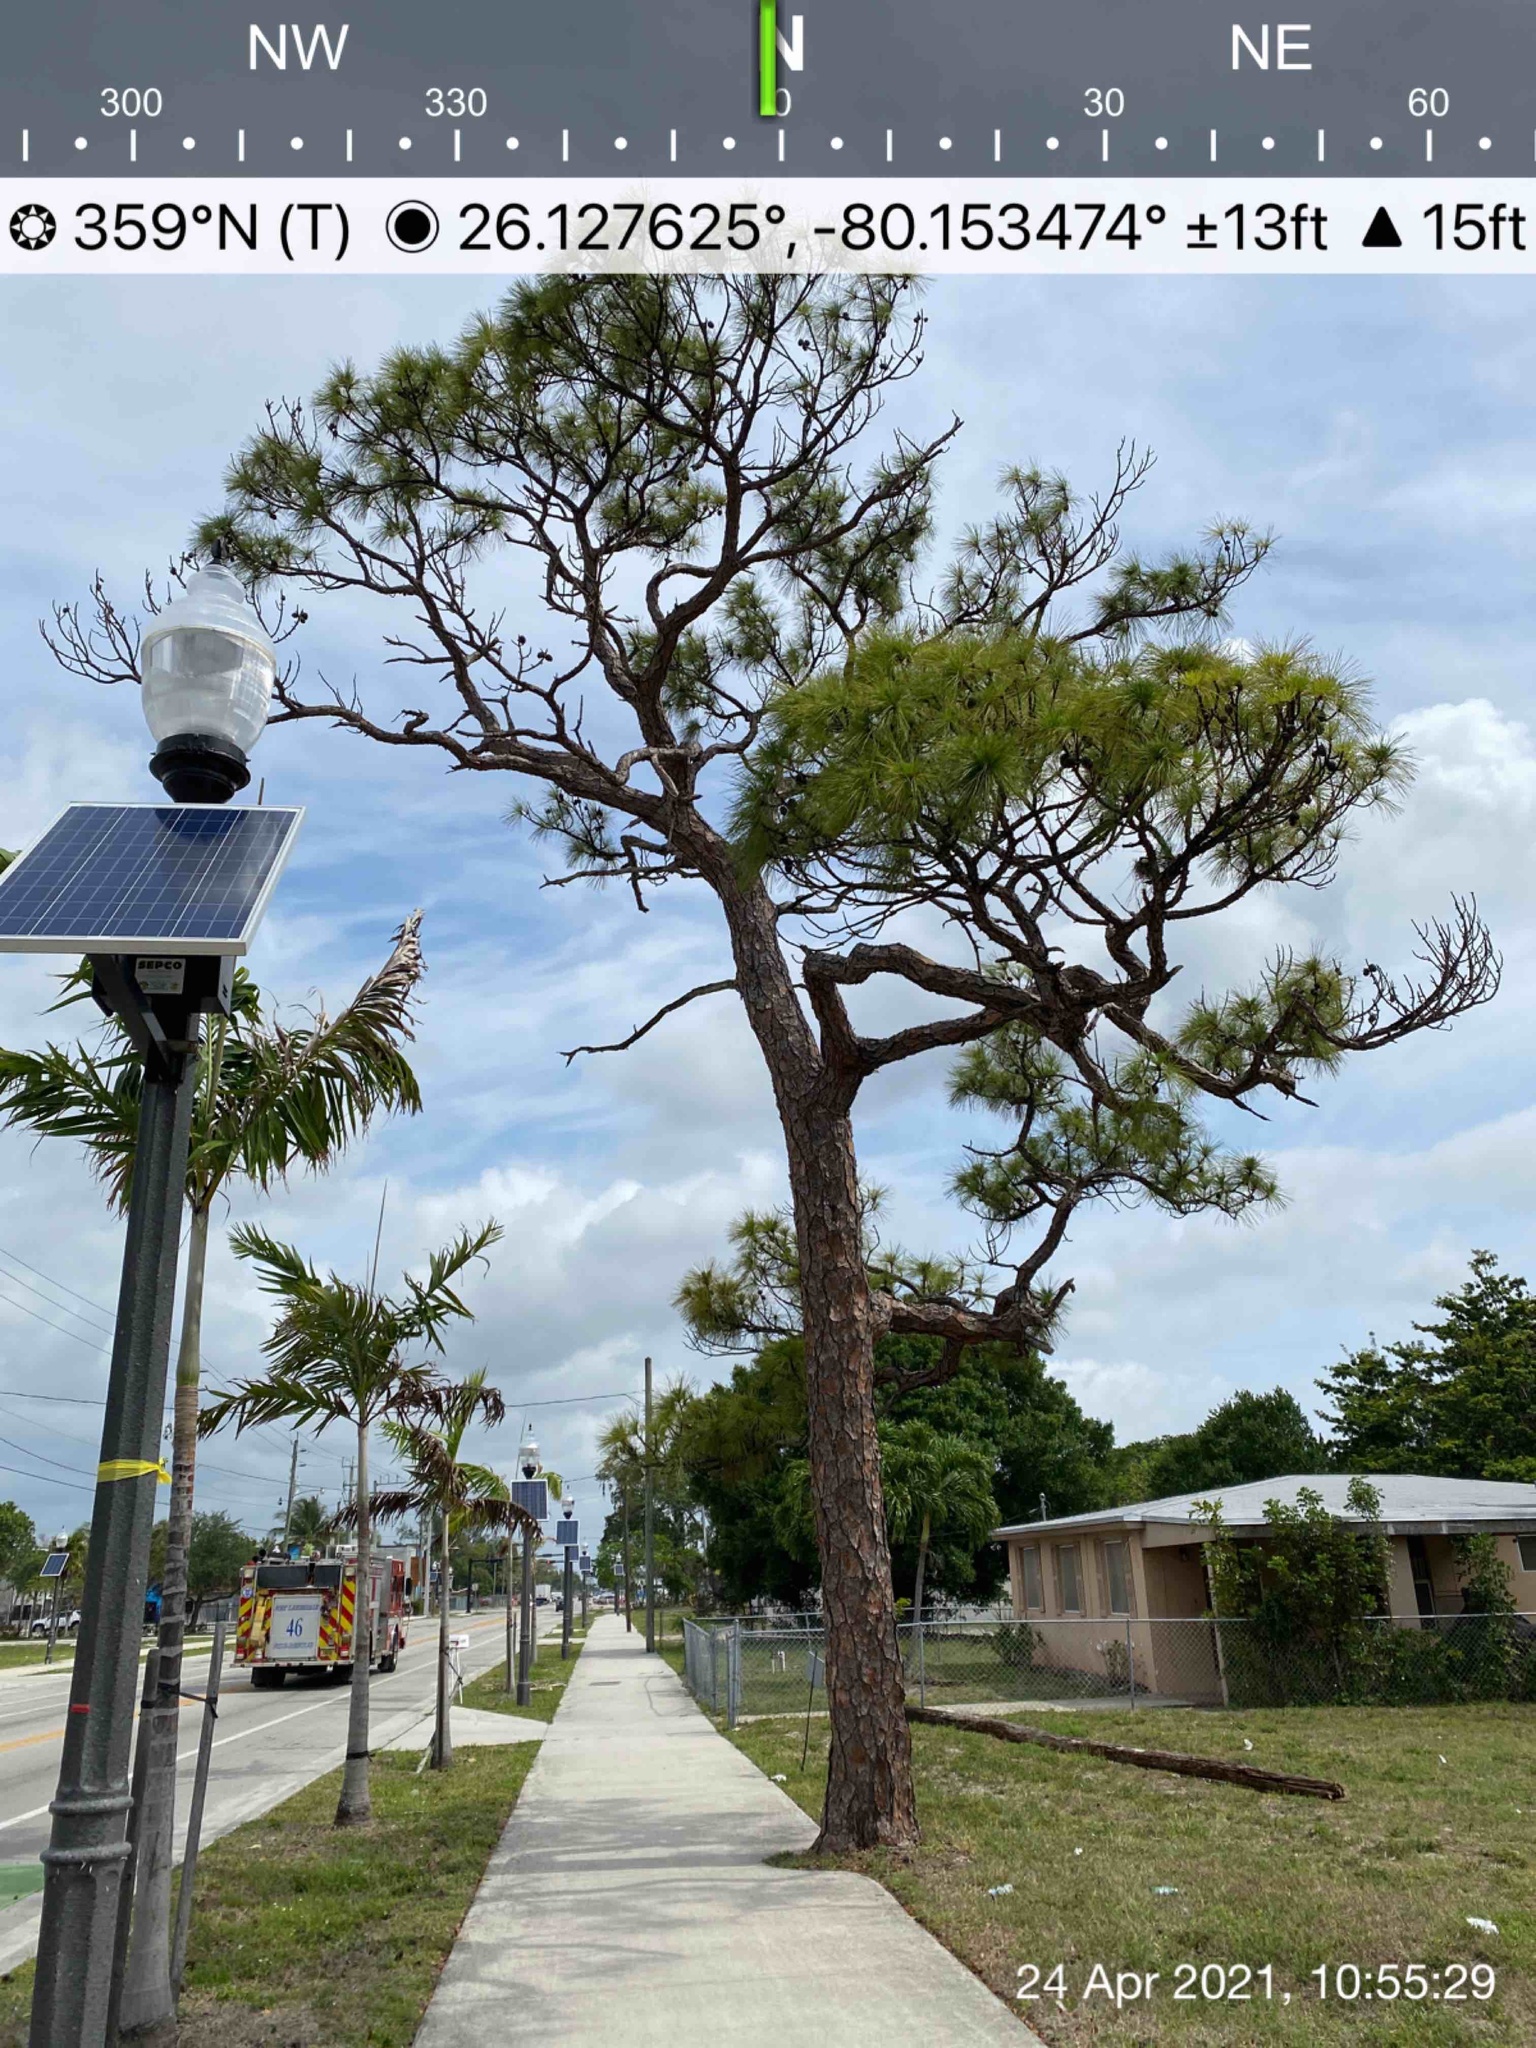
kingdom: Plantae
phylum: Tracheophyta
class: Pinopsida
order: Pinales
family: Pinaceae
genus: Pinus
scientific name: Pinus elliottii
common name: Slash pine
